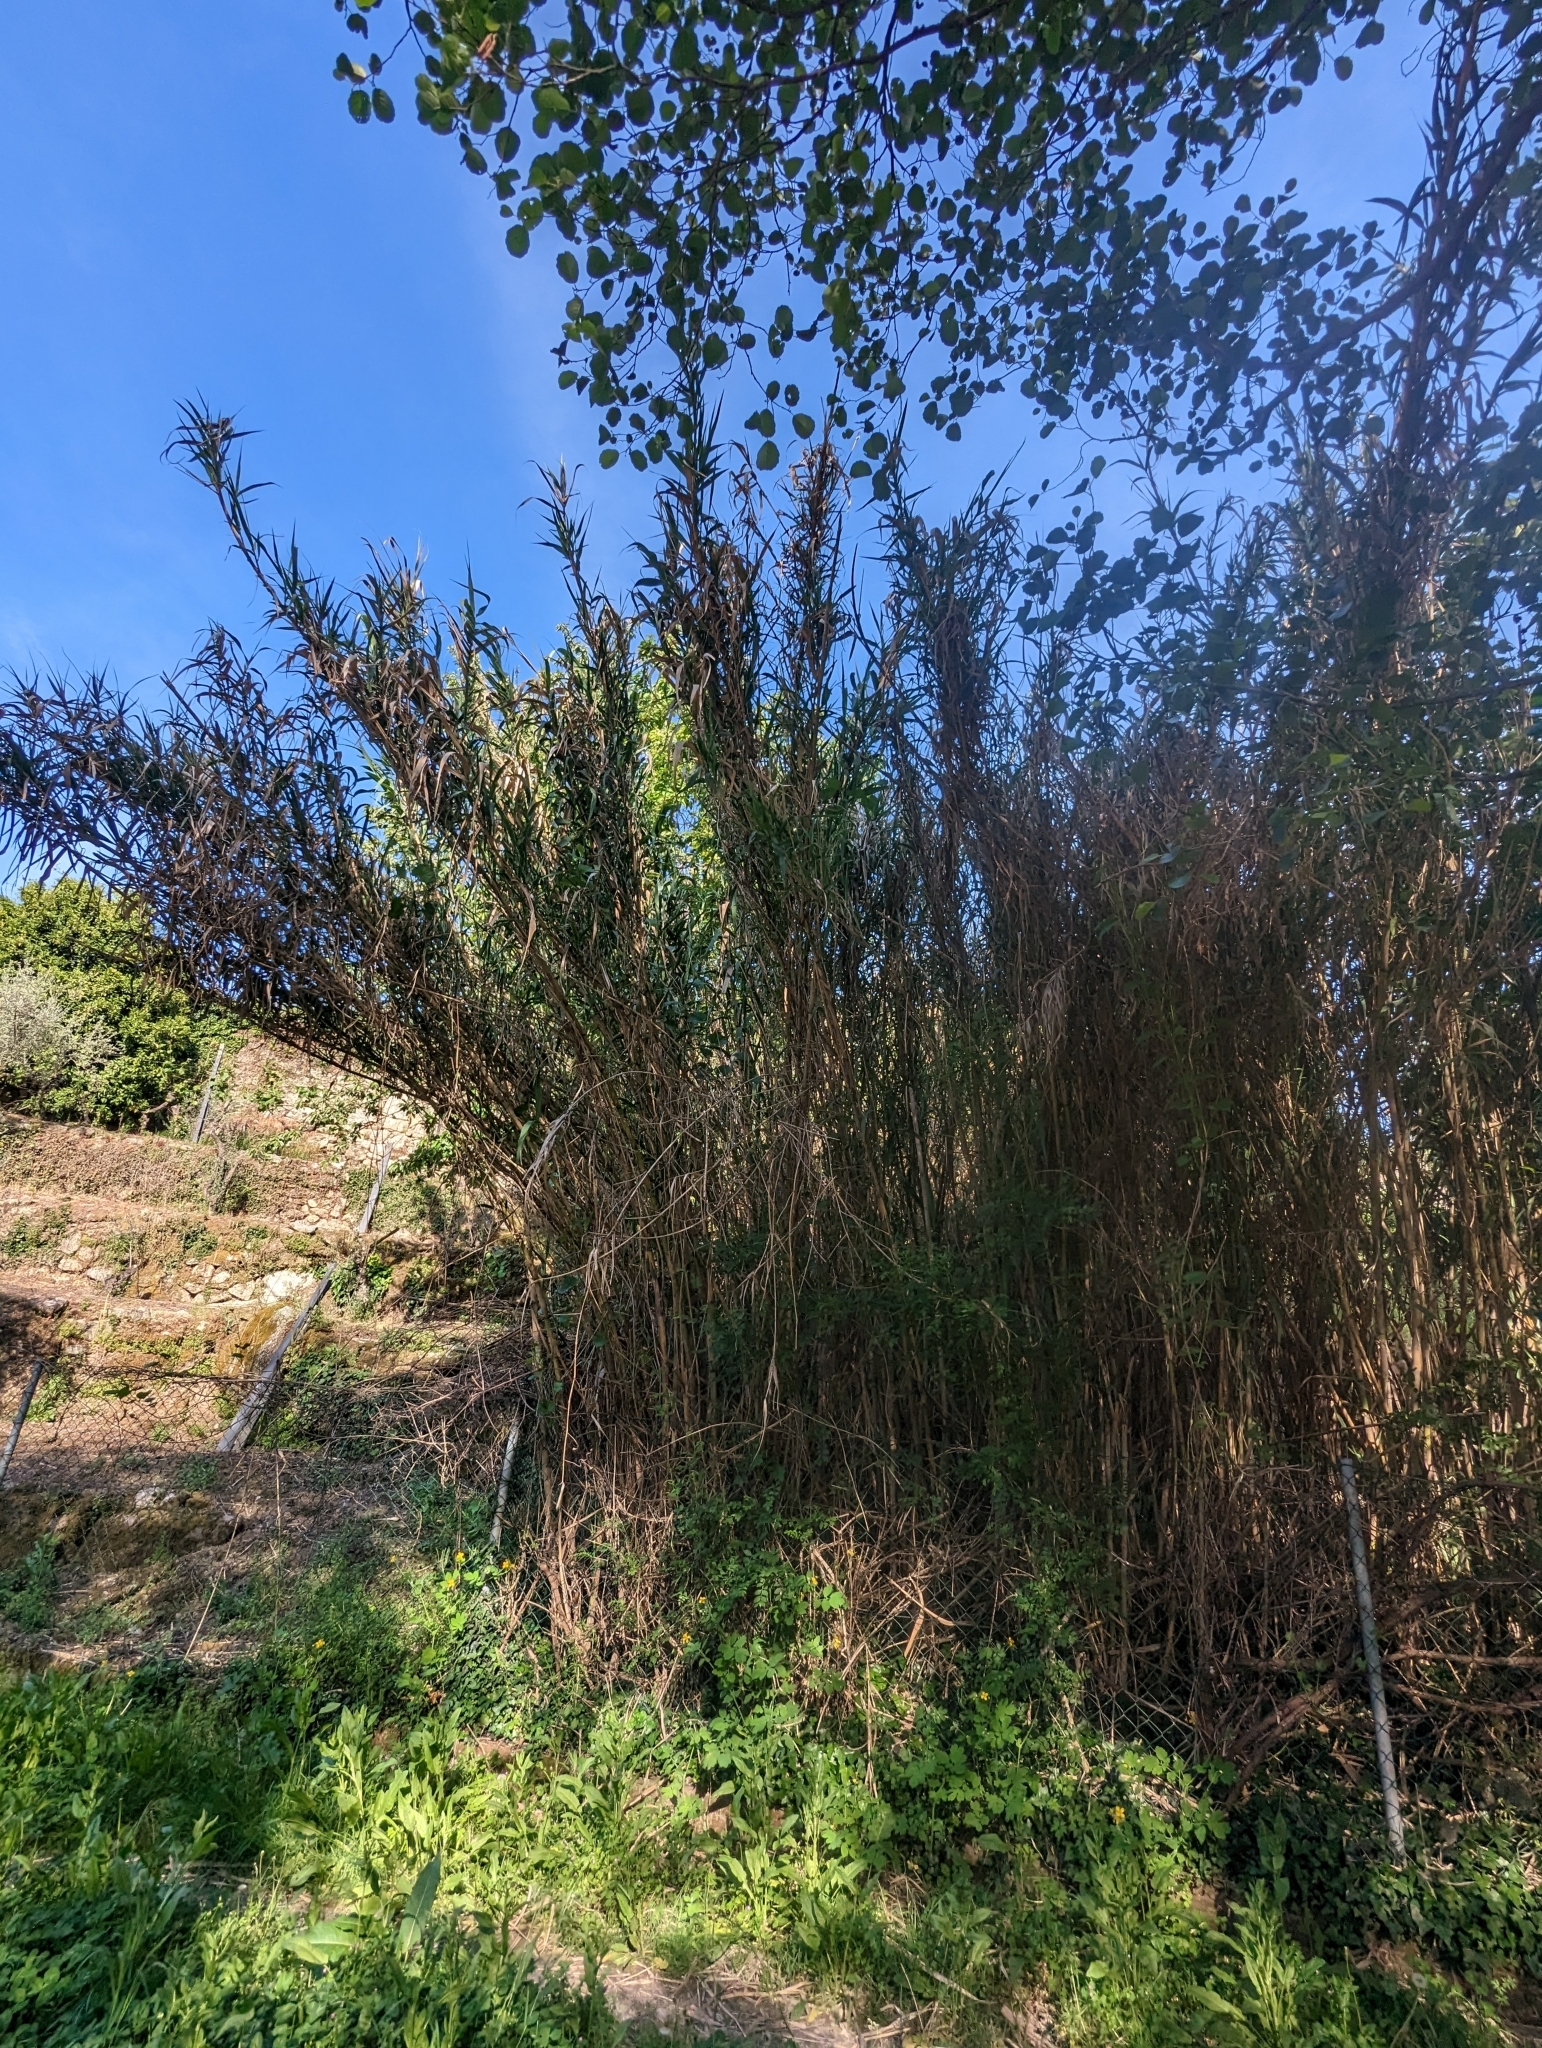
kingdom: Plantae
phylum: Tracheophyta
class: Liliopsida
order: Poales
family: Poaceae
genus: Arundo
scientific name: Arundo donax
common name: Giant reed
